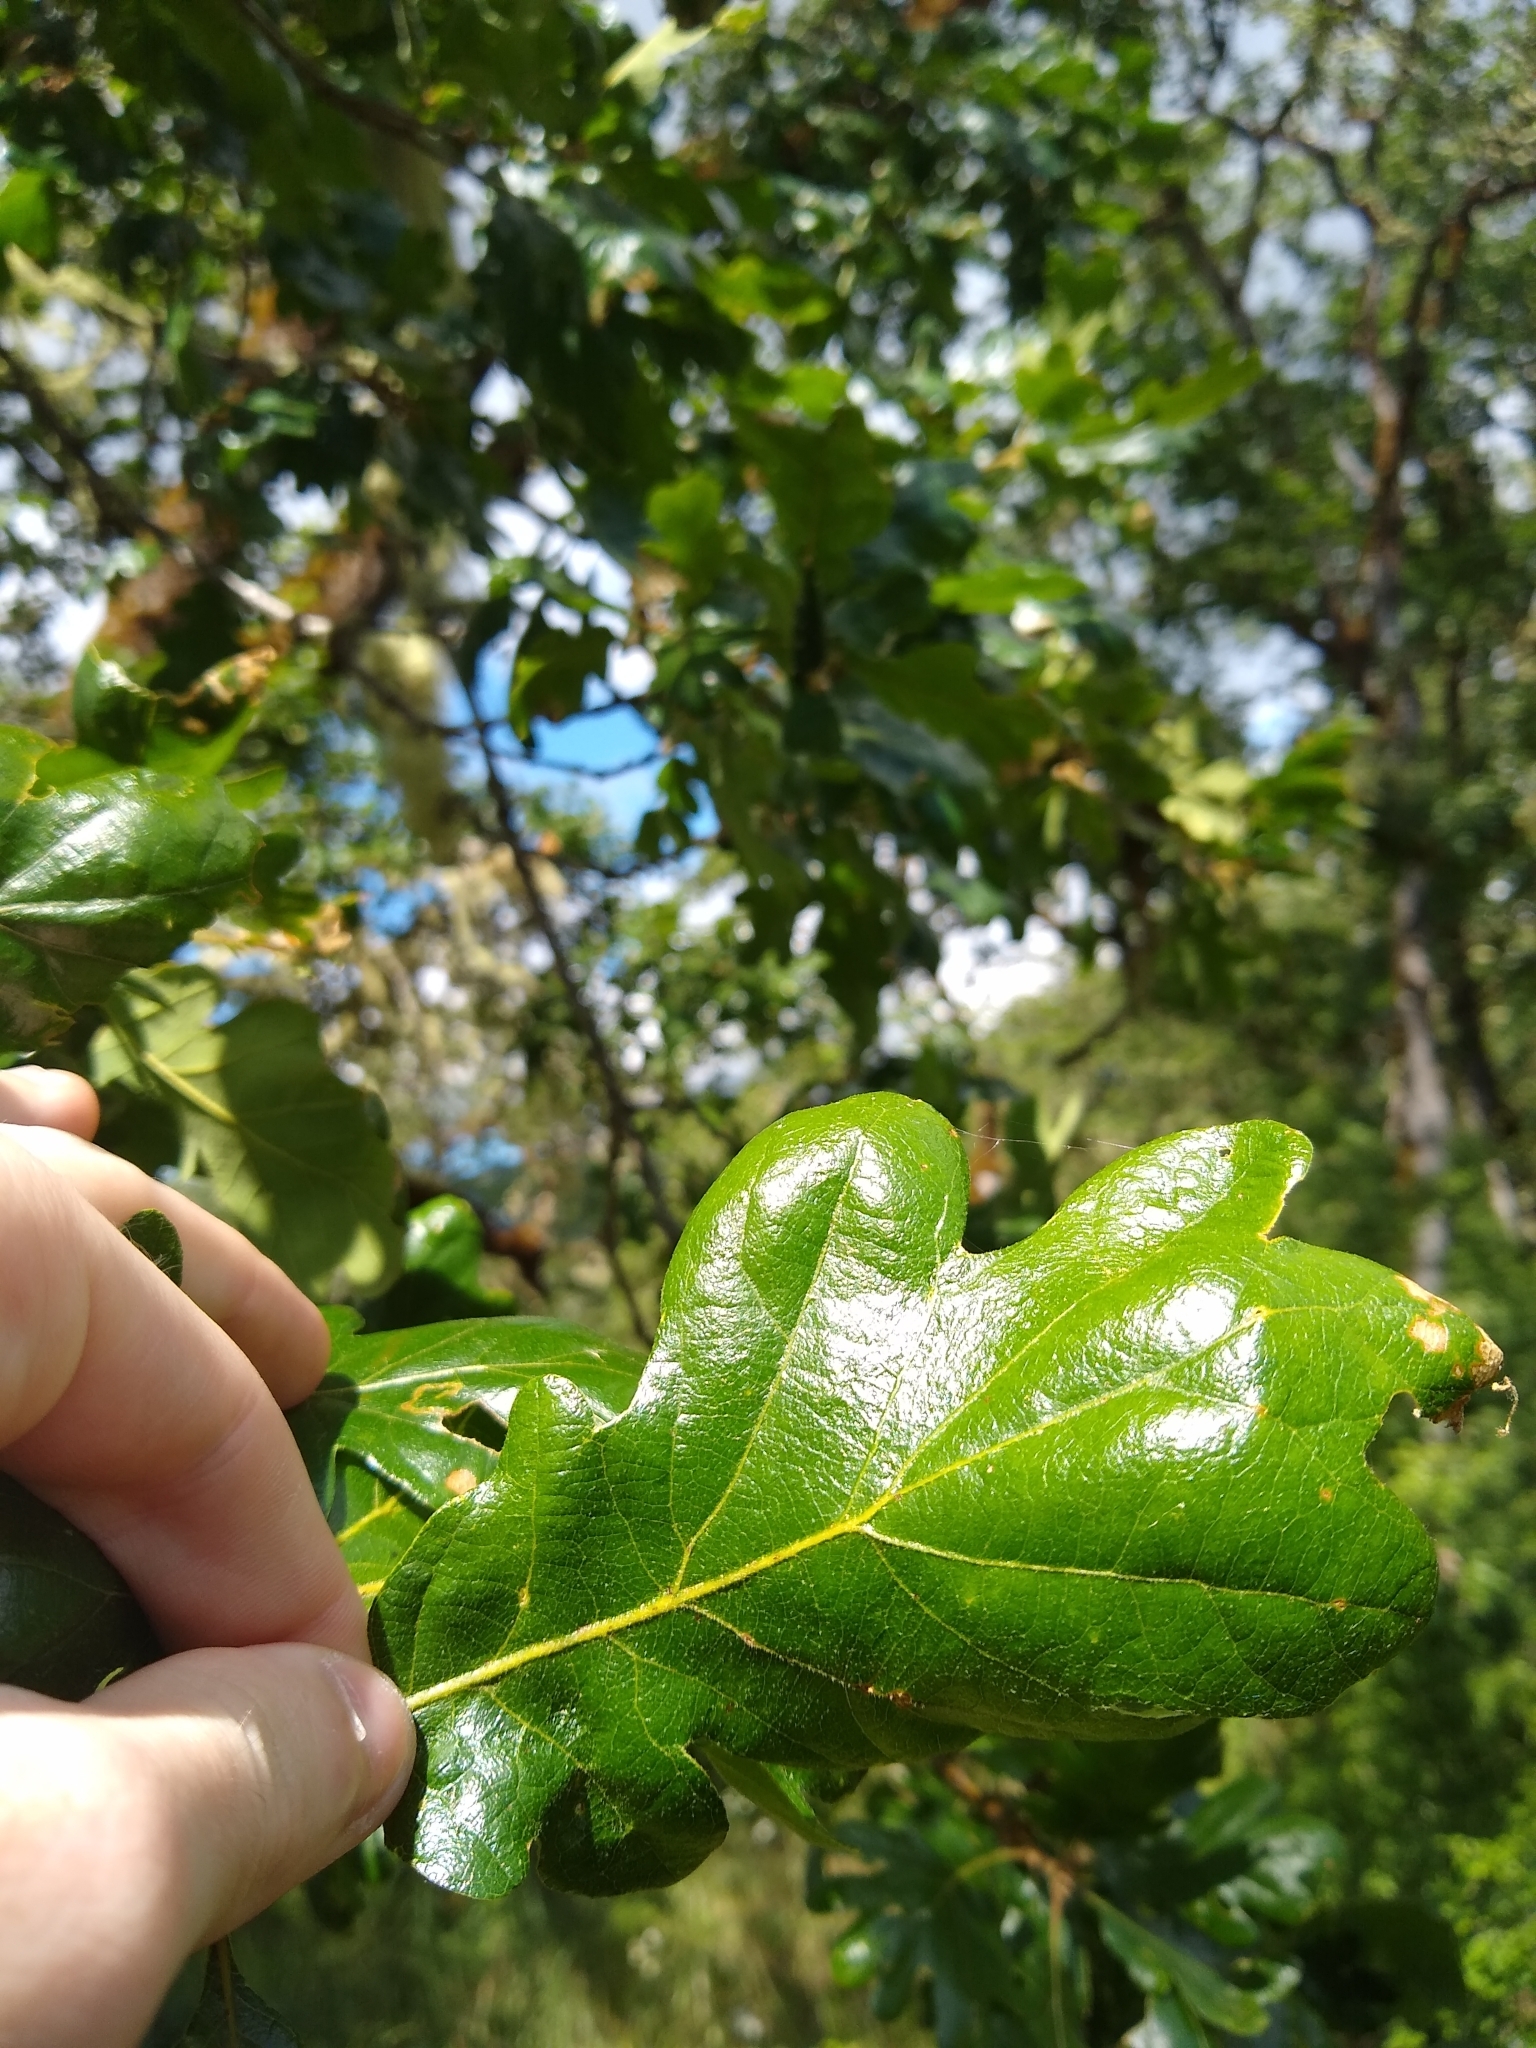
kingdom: Plantae
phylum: Tracheophyta
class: Magnoliopsida
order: Fagales
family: Fagaceae
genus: Quercus
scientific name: Quercus garryana
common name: Garry oak
